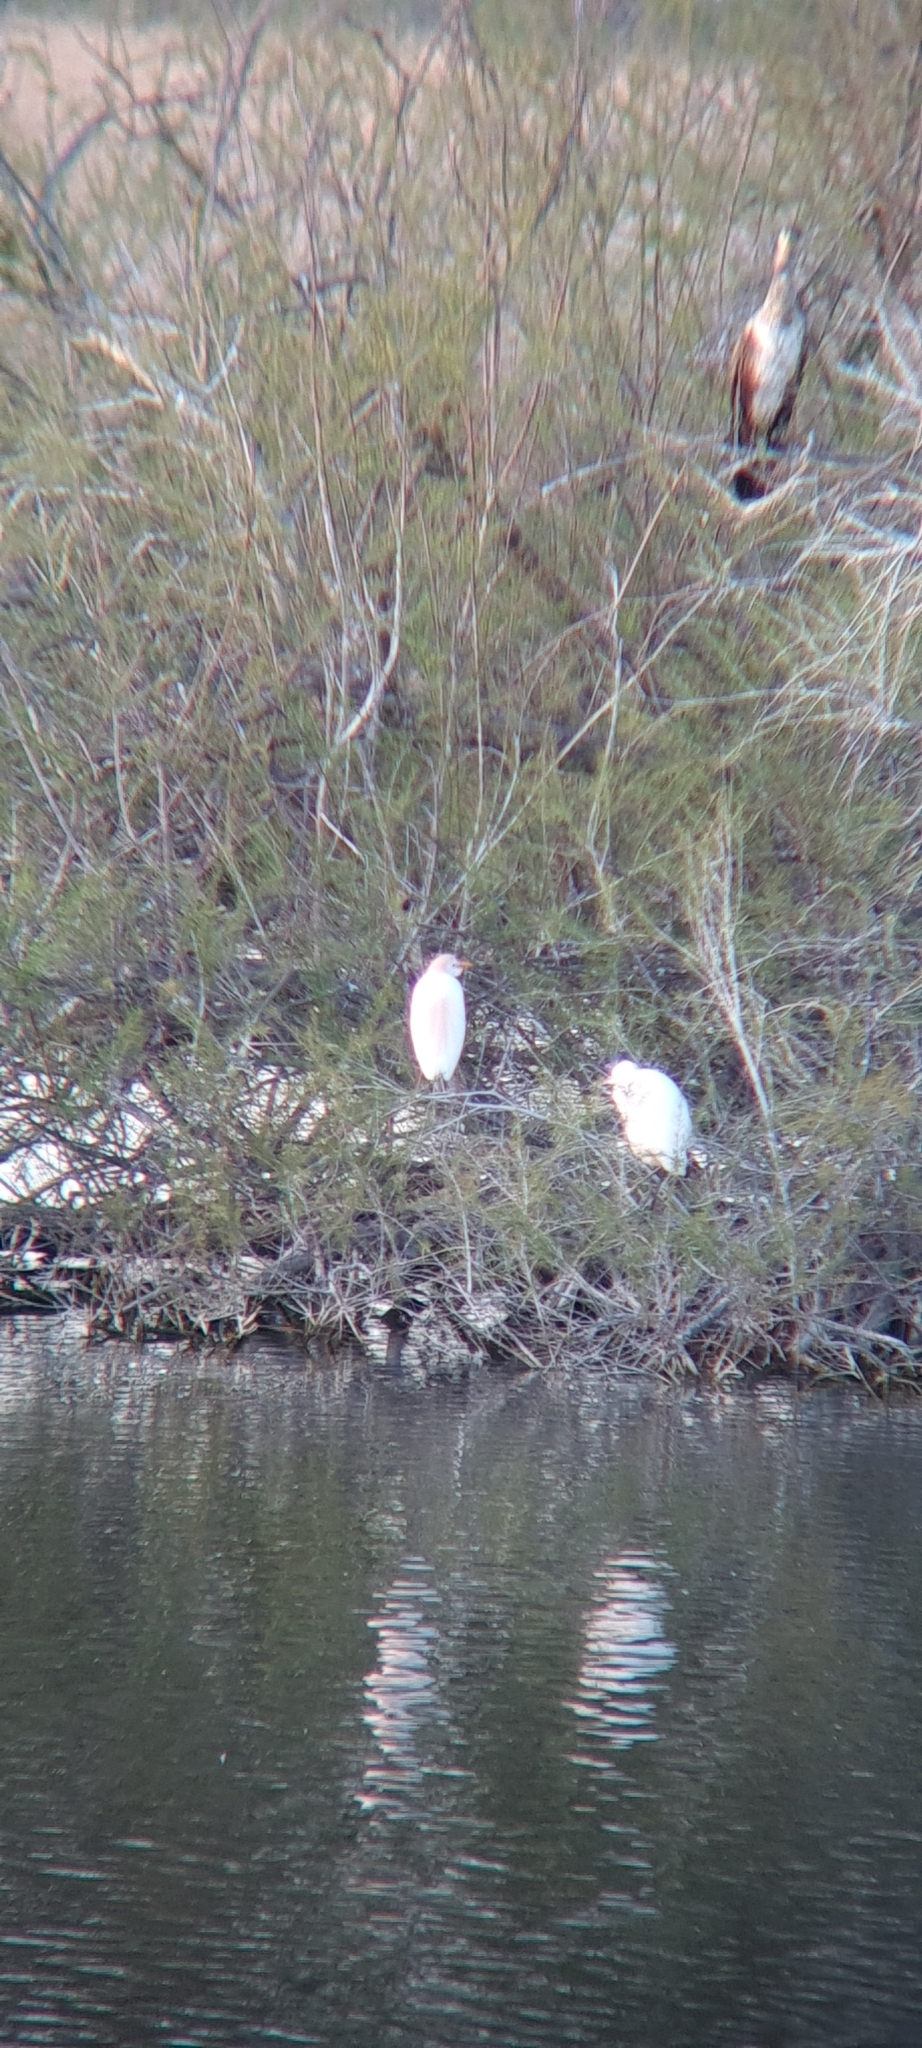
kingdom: Animalia
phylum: Chordata
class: Aves
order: Pelecaniformes
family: Ardeidae
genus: Bubulcus
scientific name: Bubulcus ibis
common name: Cattle egret
